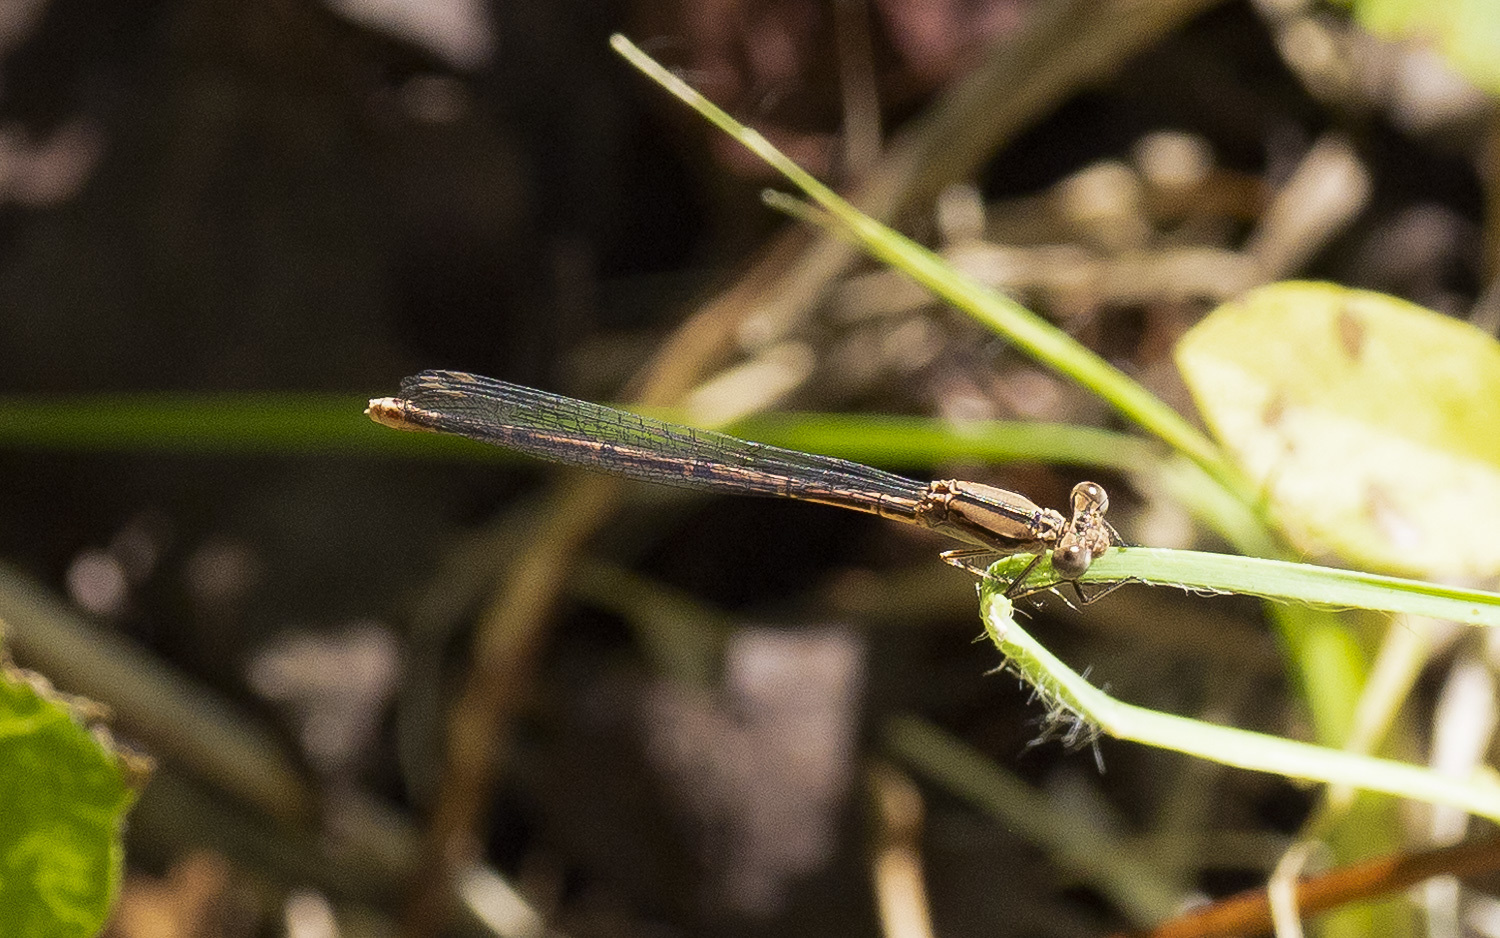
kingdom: Animalia
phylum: Arthropoda
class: Insecta
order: Odonata
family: Coenagrionidae
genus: Argia
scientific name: Argia fumipennis
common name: Variable dancer
